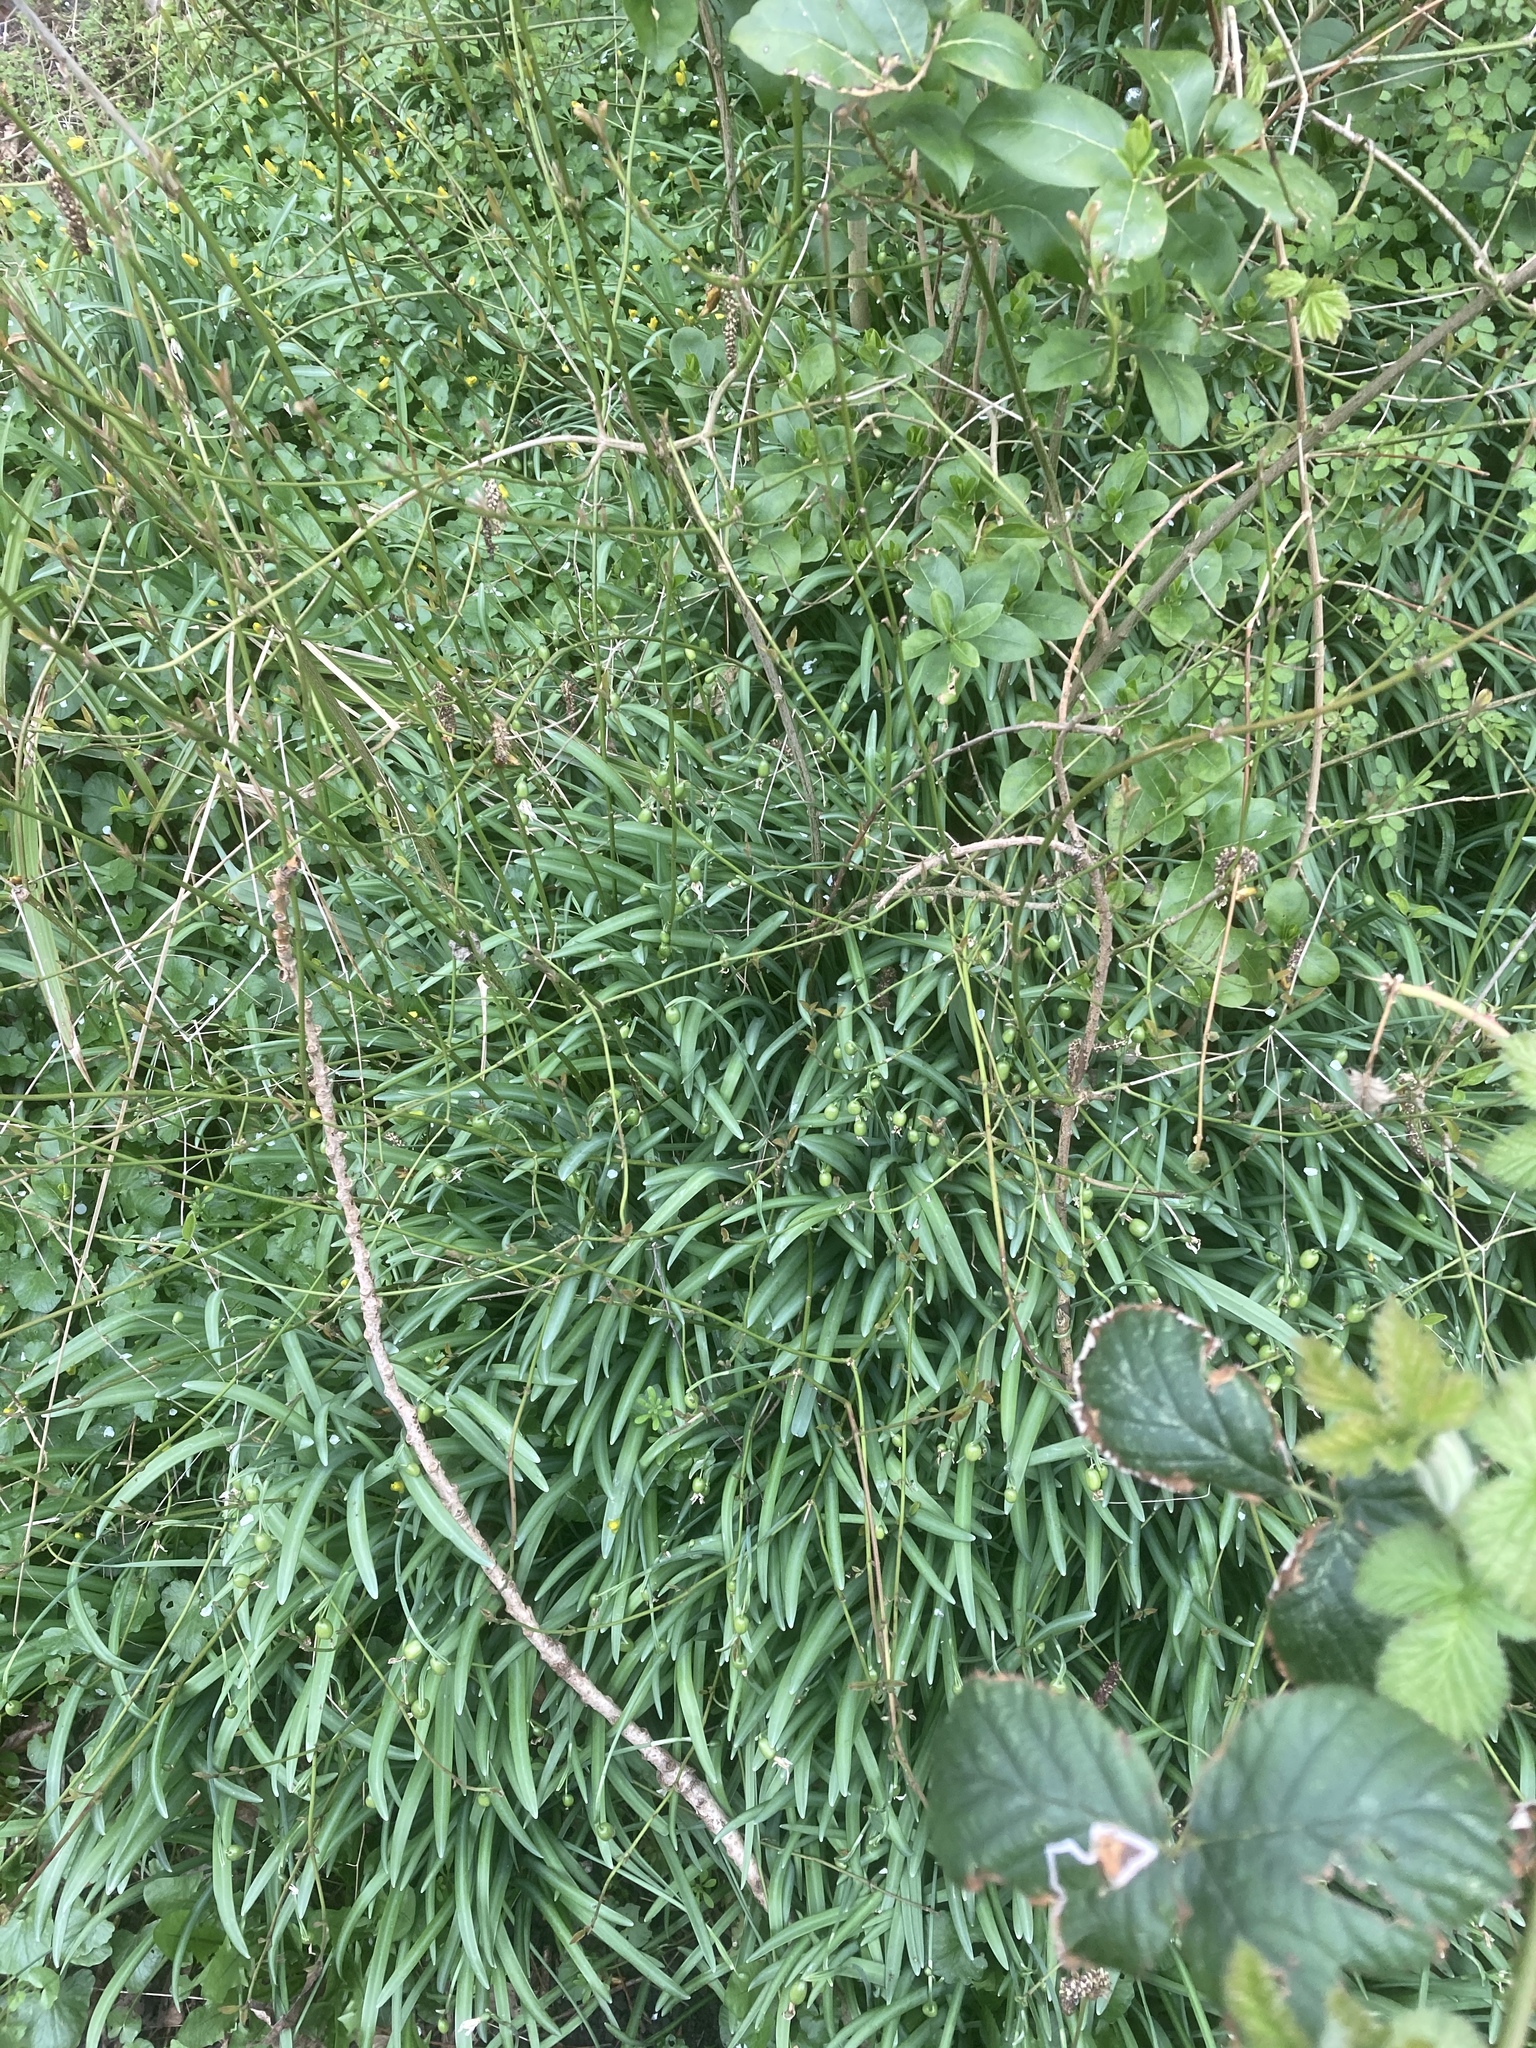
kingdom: Plantae
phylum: Tracheophyta
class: Liliopsida
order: Asparagales
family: Amaryllidaceae
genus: Galanthus
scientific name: Galanthus nivalis
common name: Snowdrop
